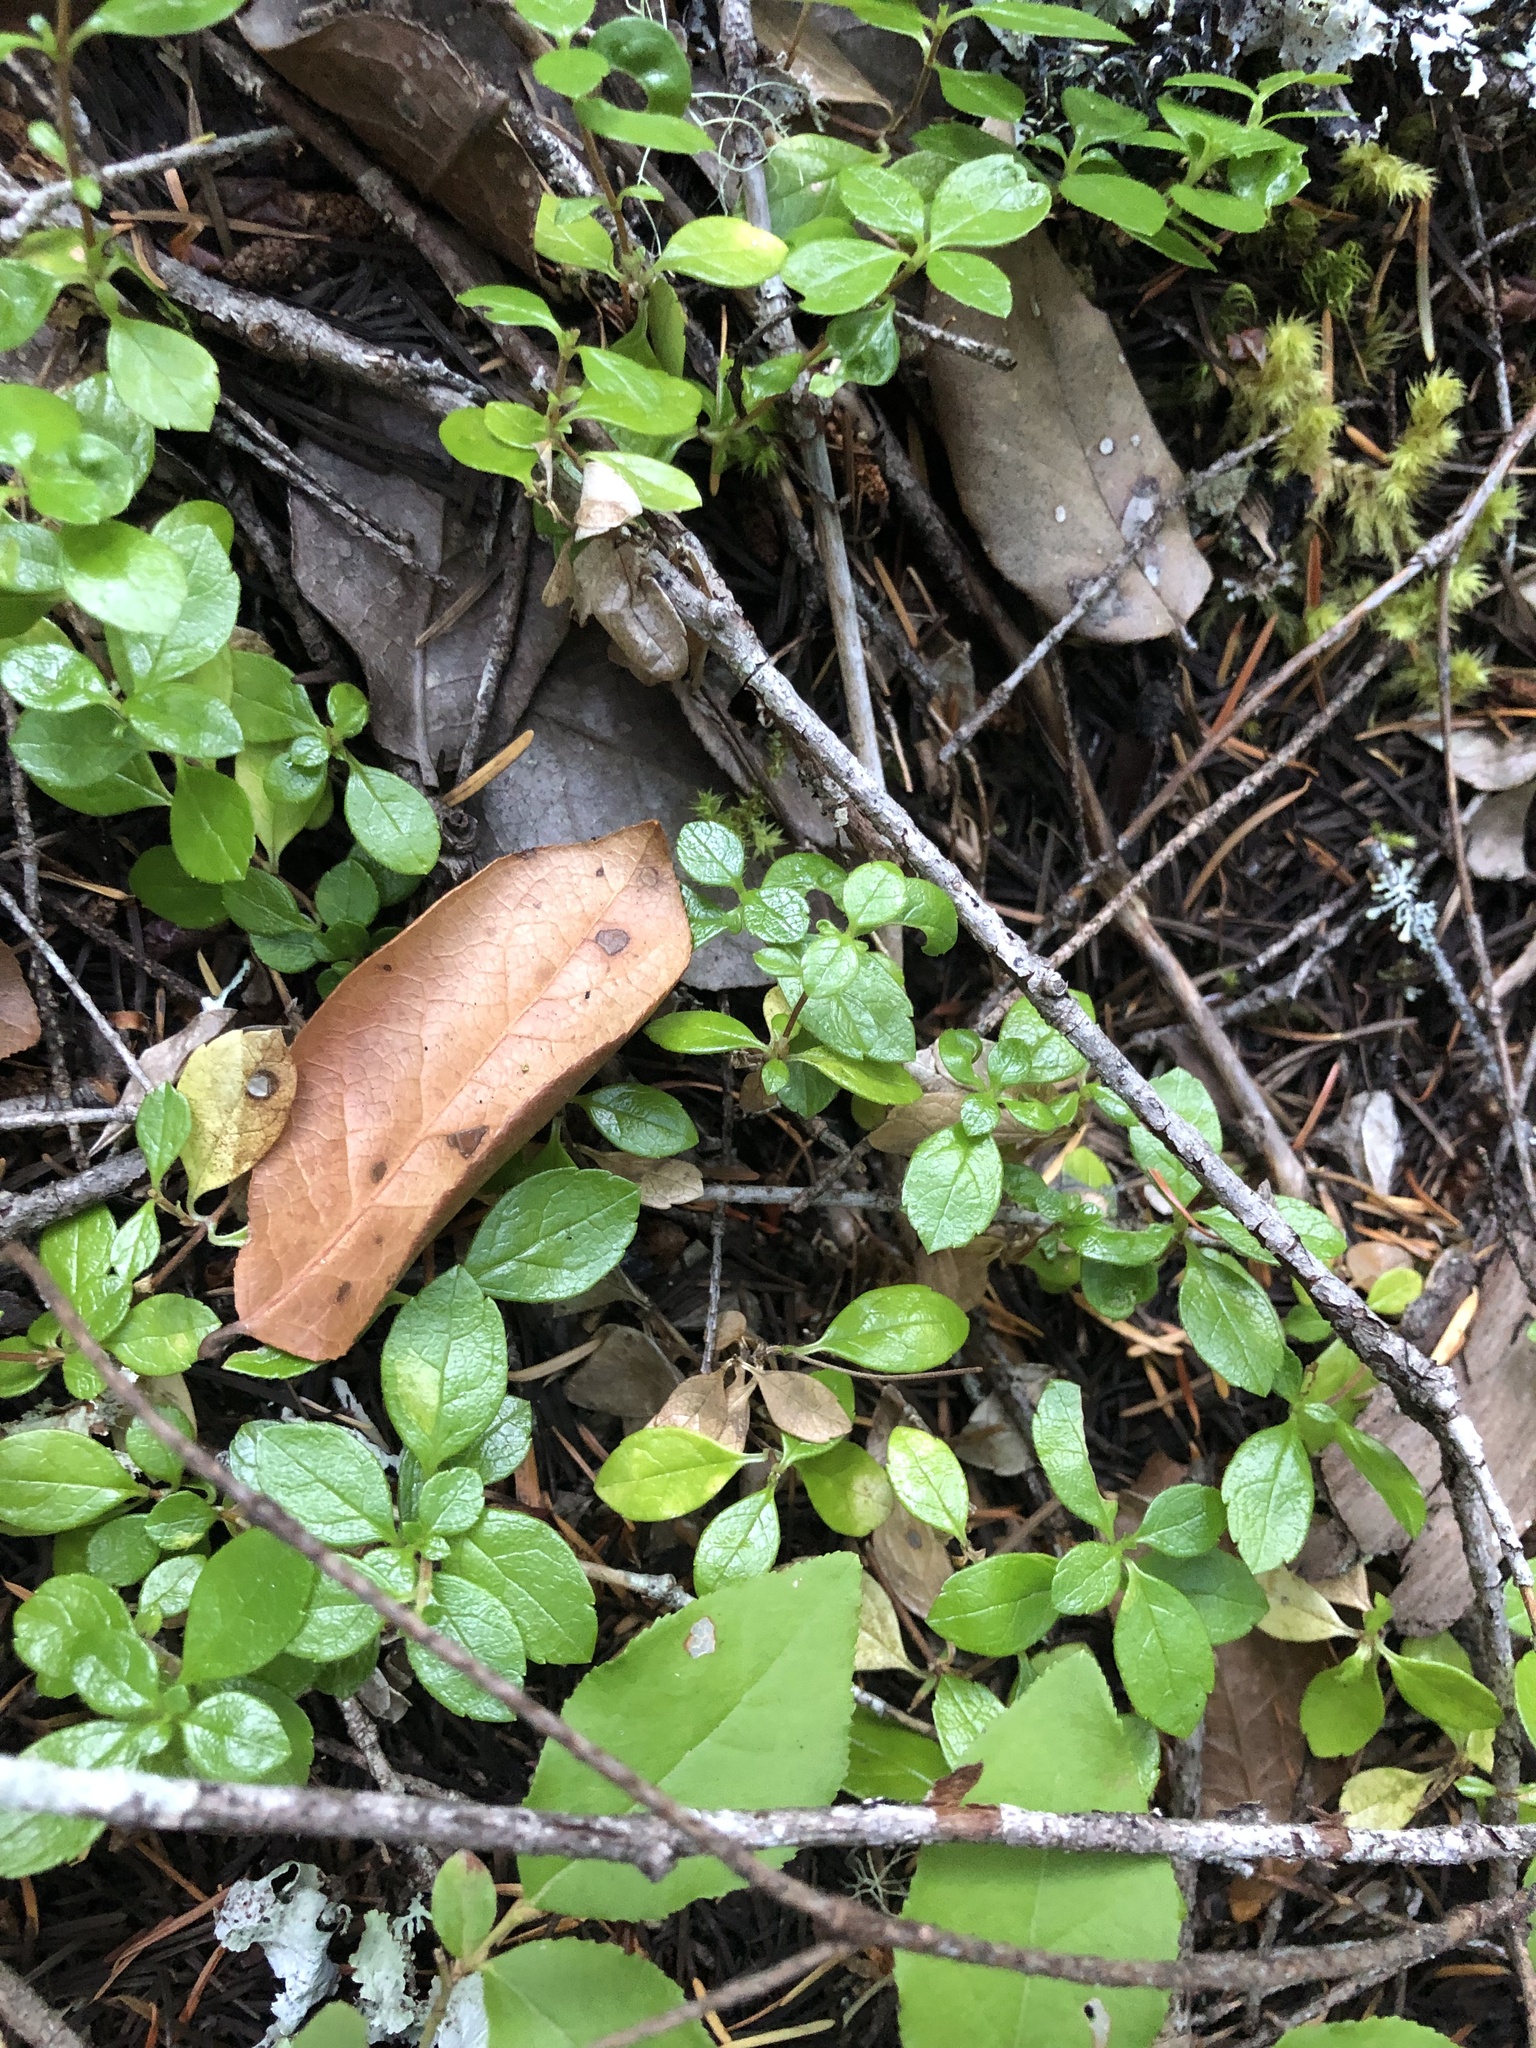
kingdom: Plantae
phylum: Tracheophyta
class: Magnoliopsida
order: Dipsacales
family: Caprifoliaceae
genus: Linnaea
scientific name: Linnaea borealis
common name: Twinflower
